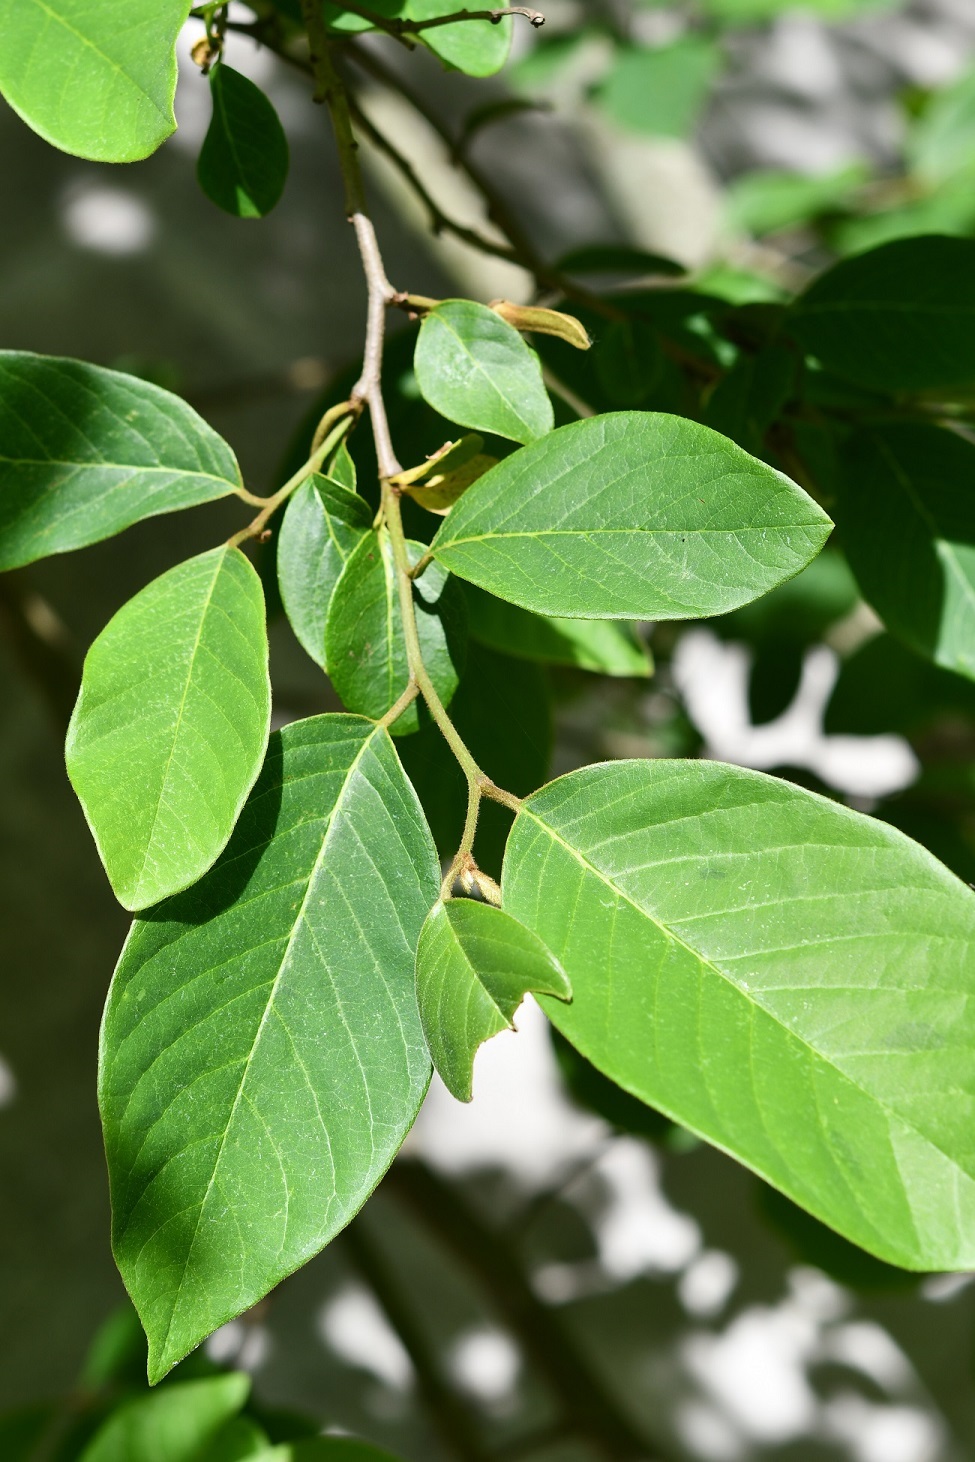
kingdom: Plantae
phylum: Tracheophyta
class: Magnoliopsida
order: Magnoliales
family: Annonaceae
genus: Annona
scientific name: Annona cherimola
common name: Cherimoya
